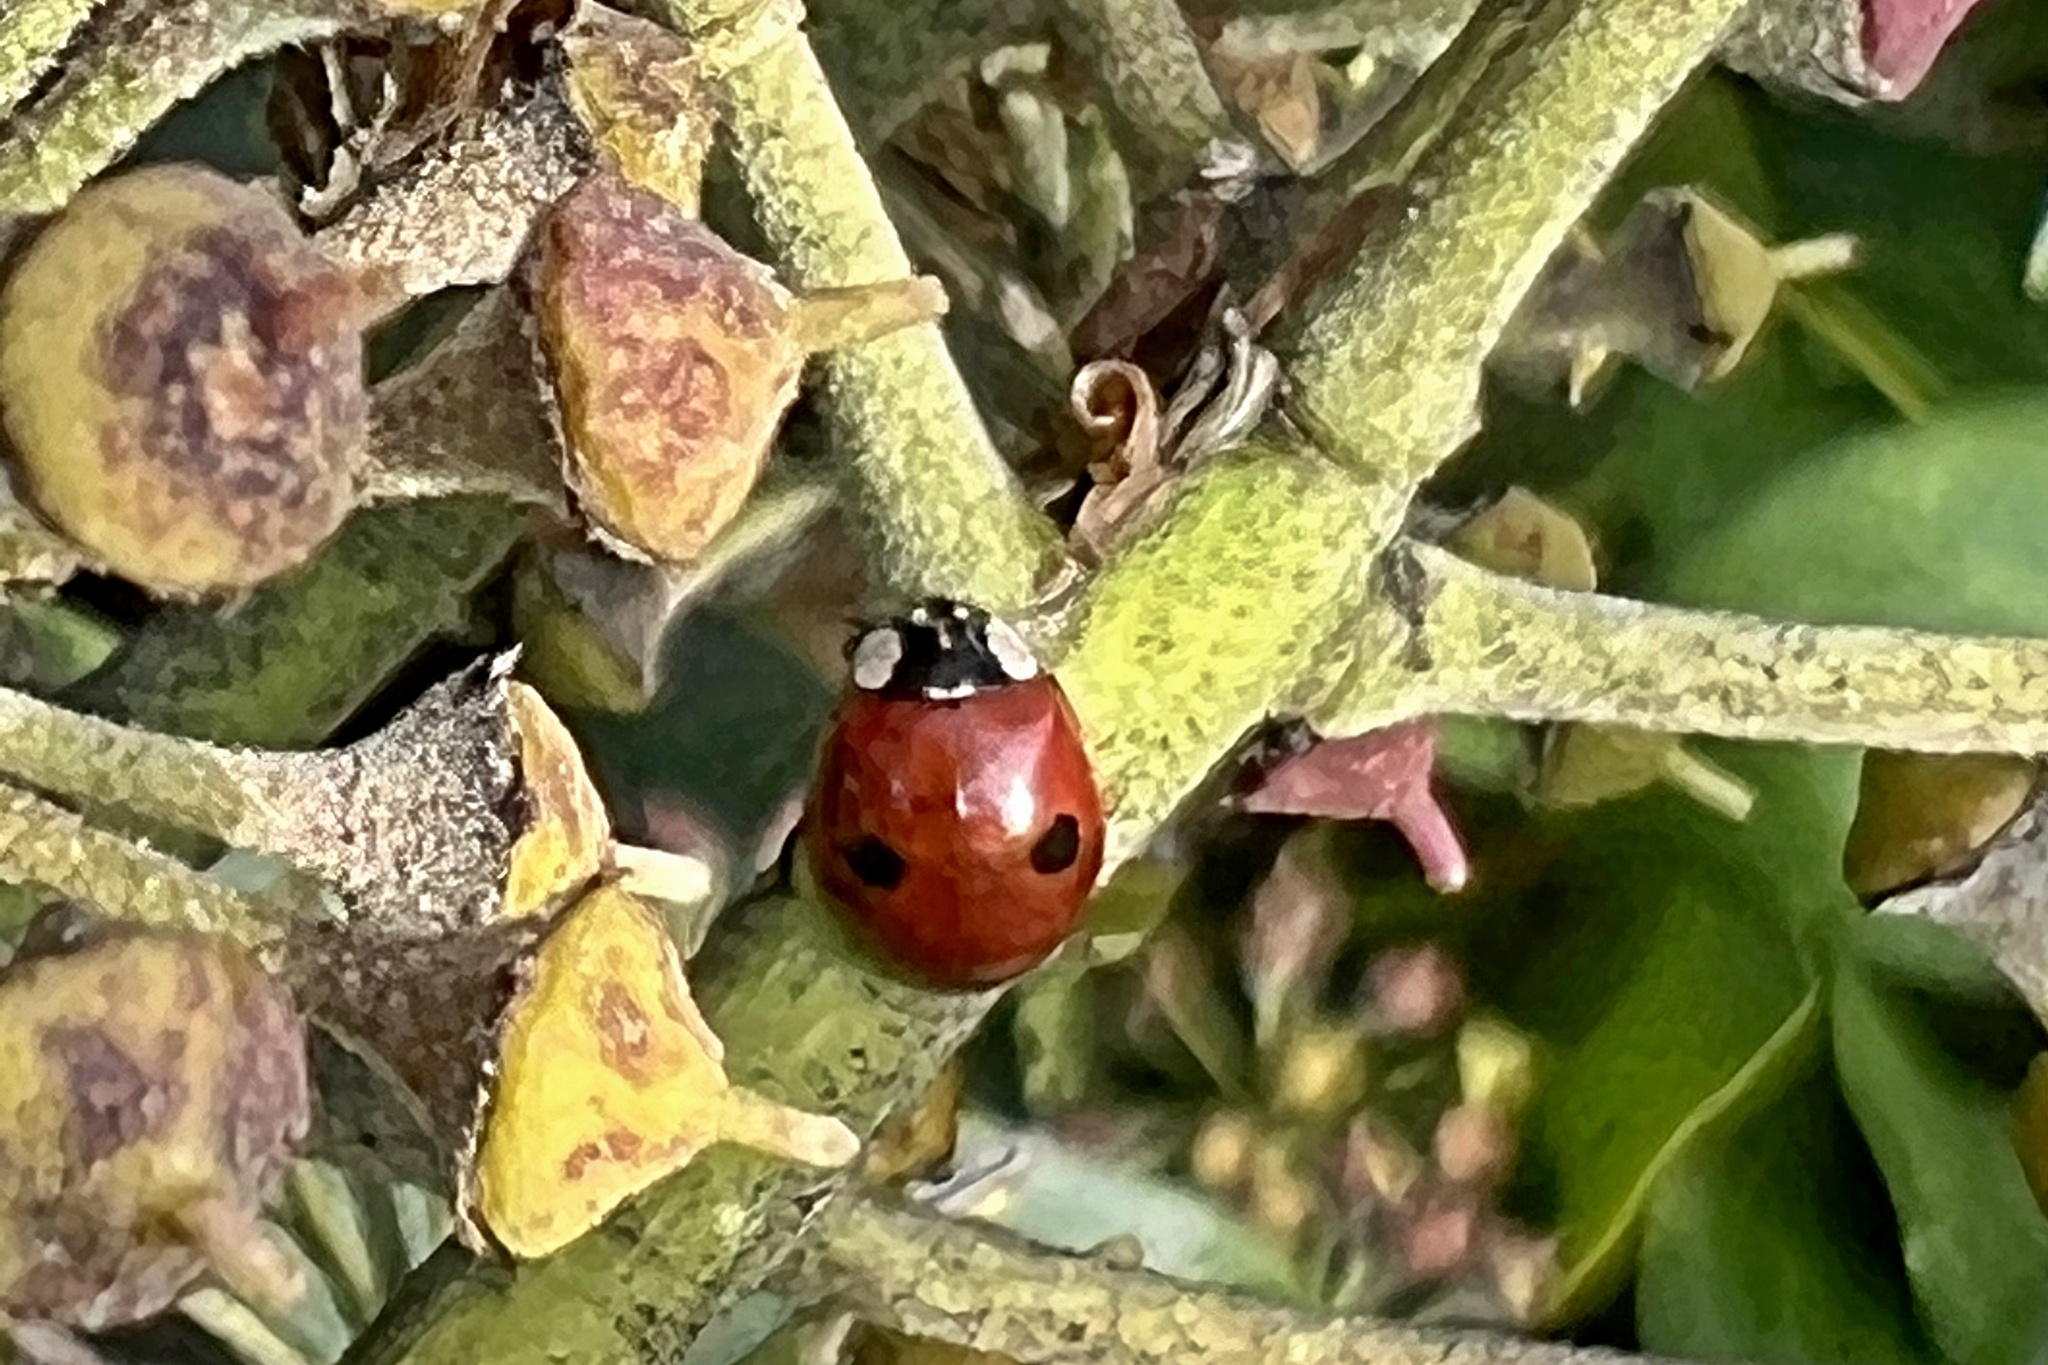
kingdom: Animalia
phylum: Arthropoda
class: Insecta
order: Coleoptera
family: Coccinellidae
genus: Adalia
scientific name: Adalia bipunctata
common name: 2-spot ladybird
